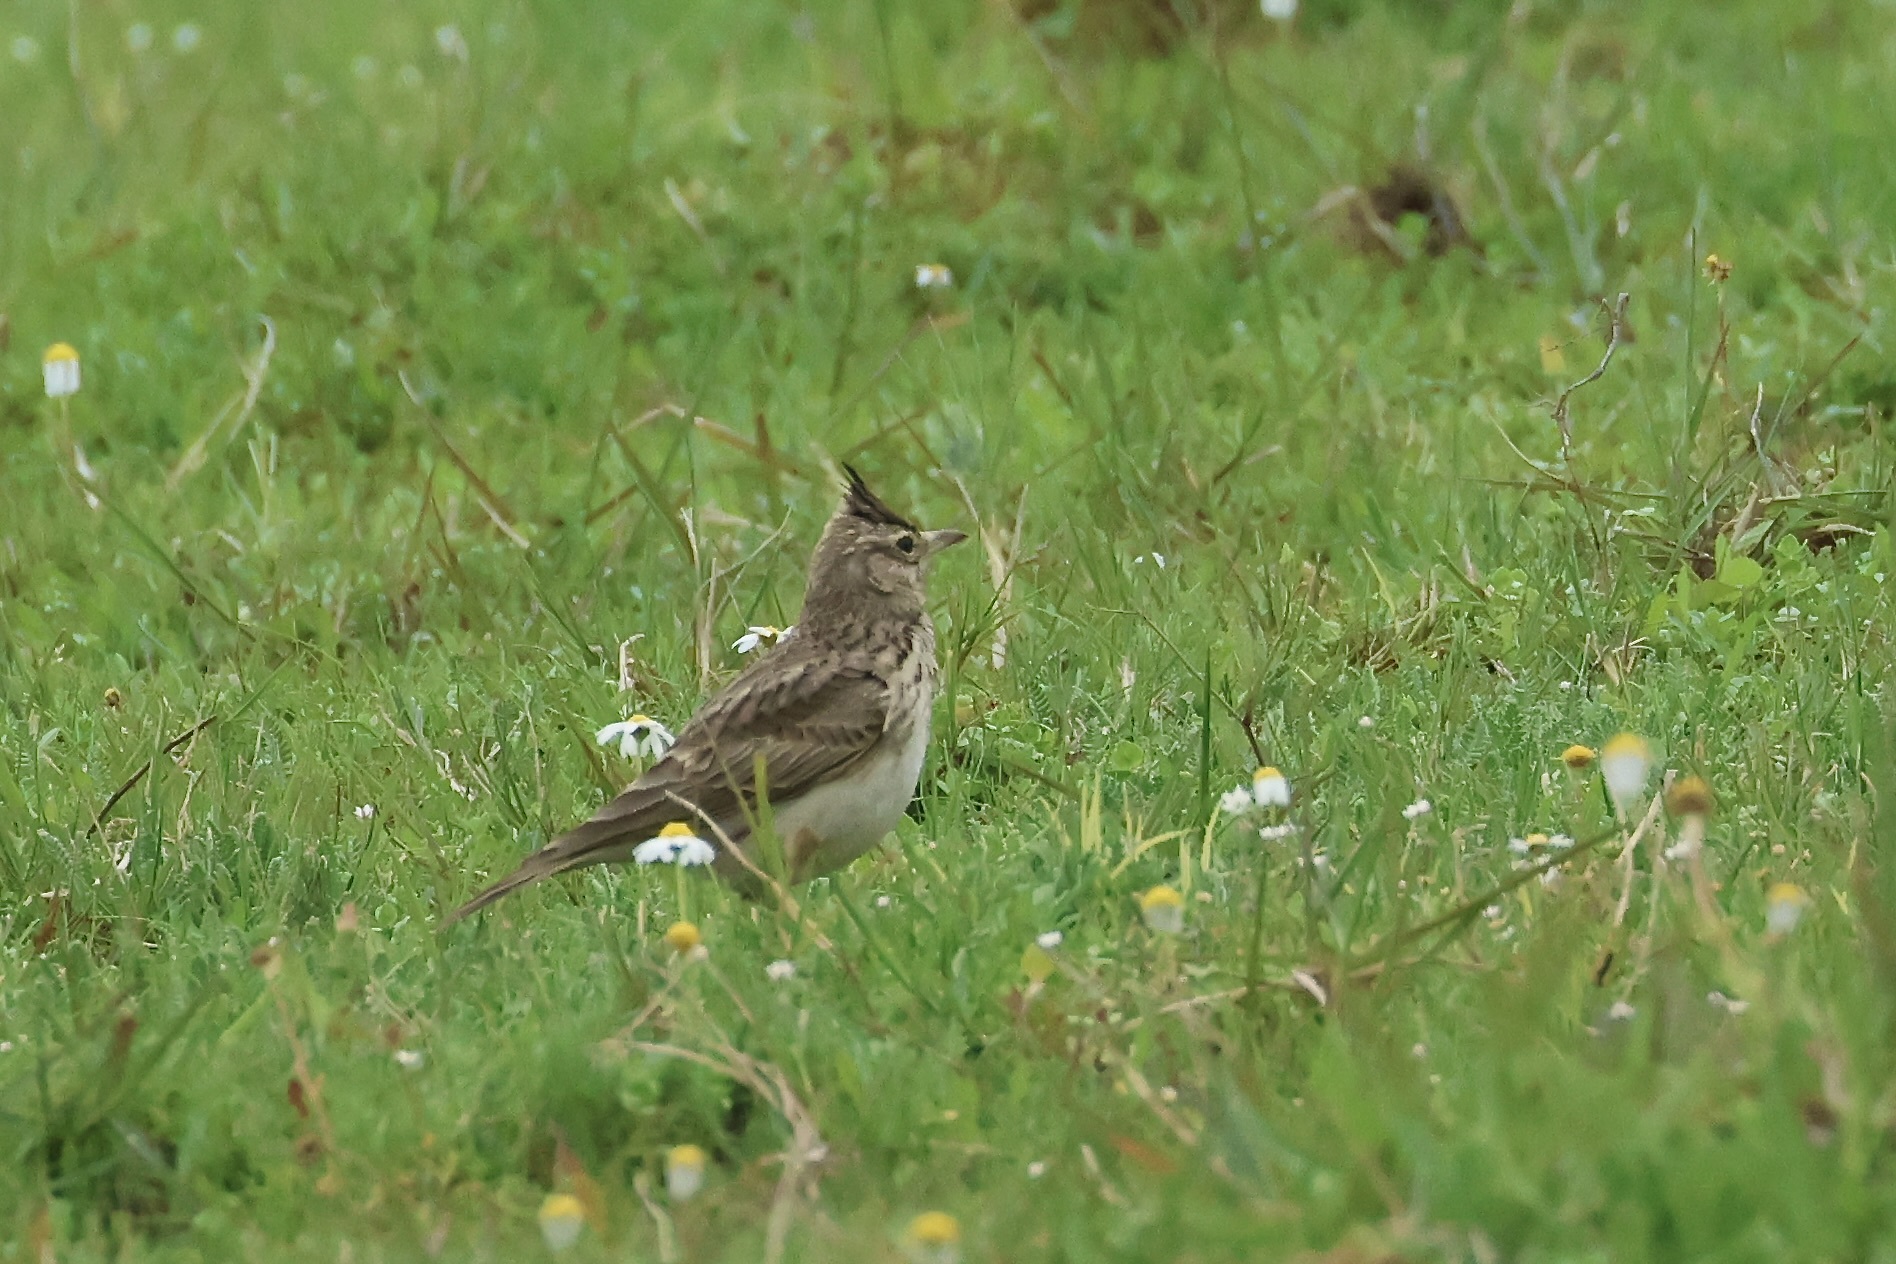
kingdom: Animalia
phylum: Chordata
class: Aves
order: Passeriformes
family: Alaudidae
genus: Galerida
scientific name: Galerida cristata
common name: Crested lark
